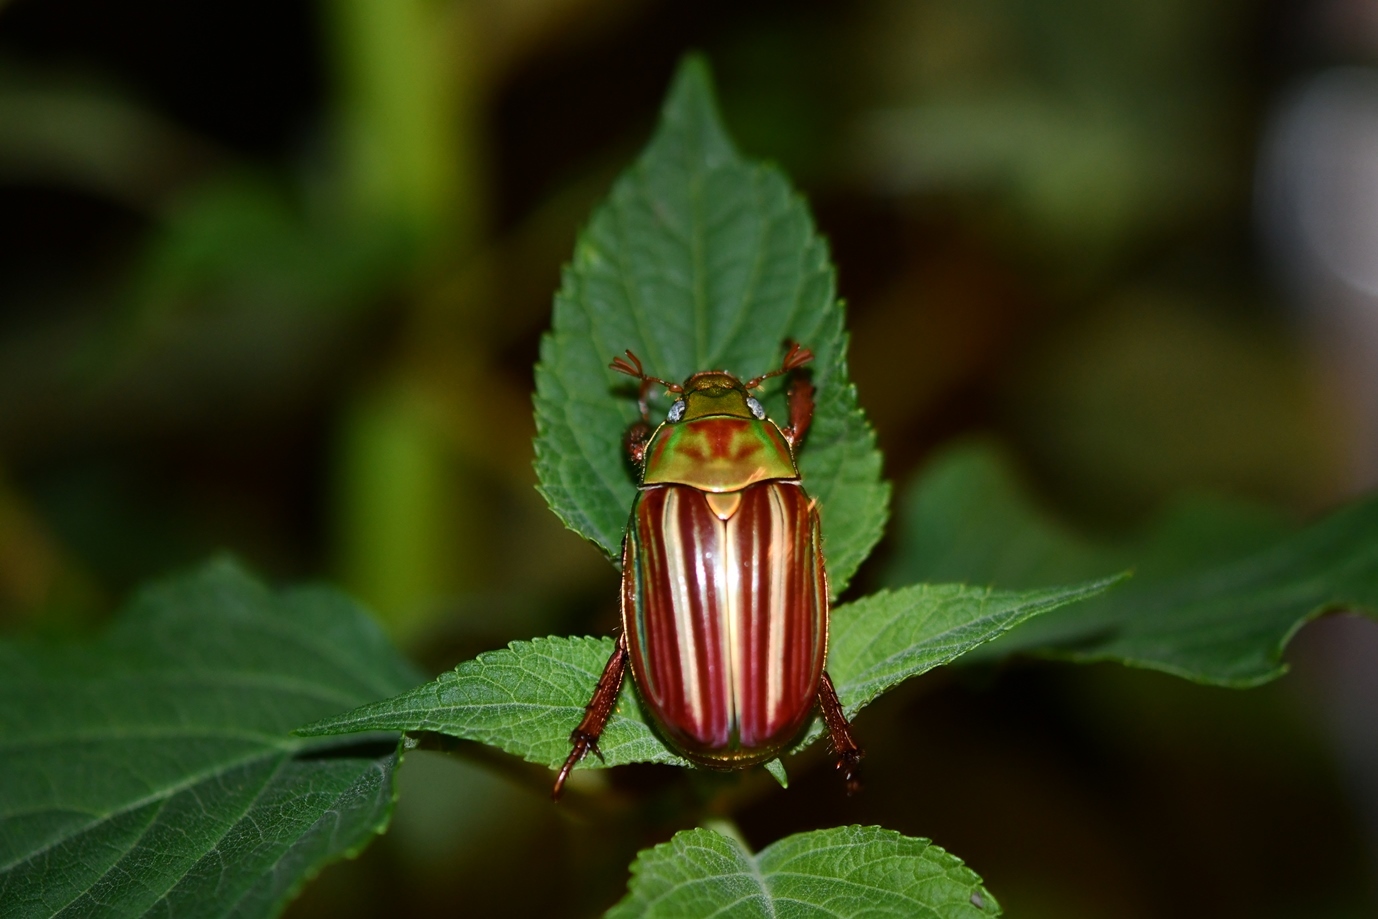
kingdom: Animalia
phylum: Arthropoda
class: Insecta
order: Coleoptera
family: Scarabaeidae
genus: Chrysina
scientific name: Chrysina quetzalcoatli
